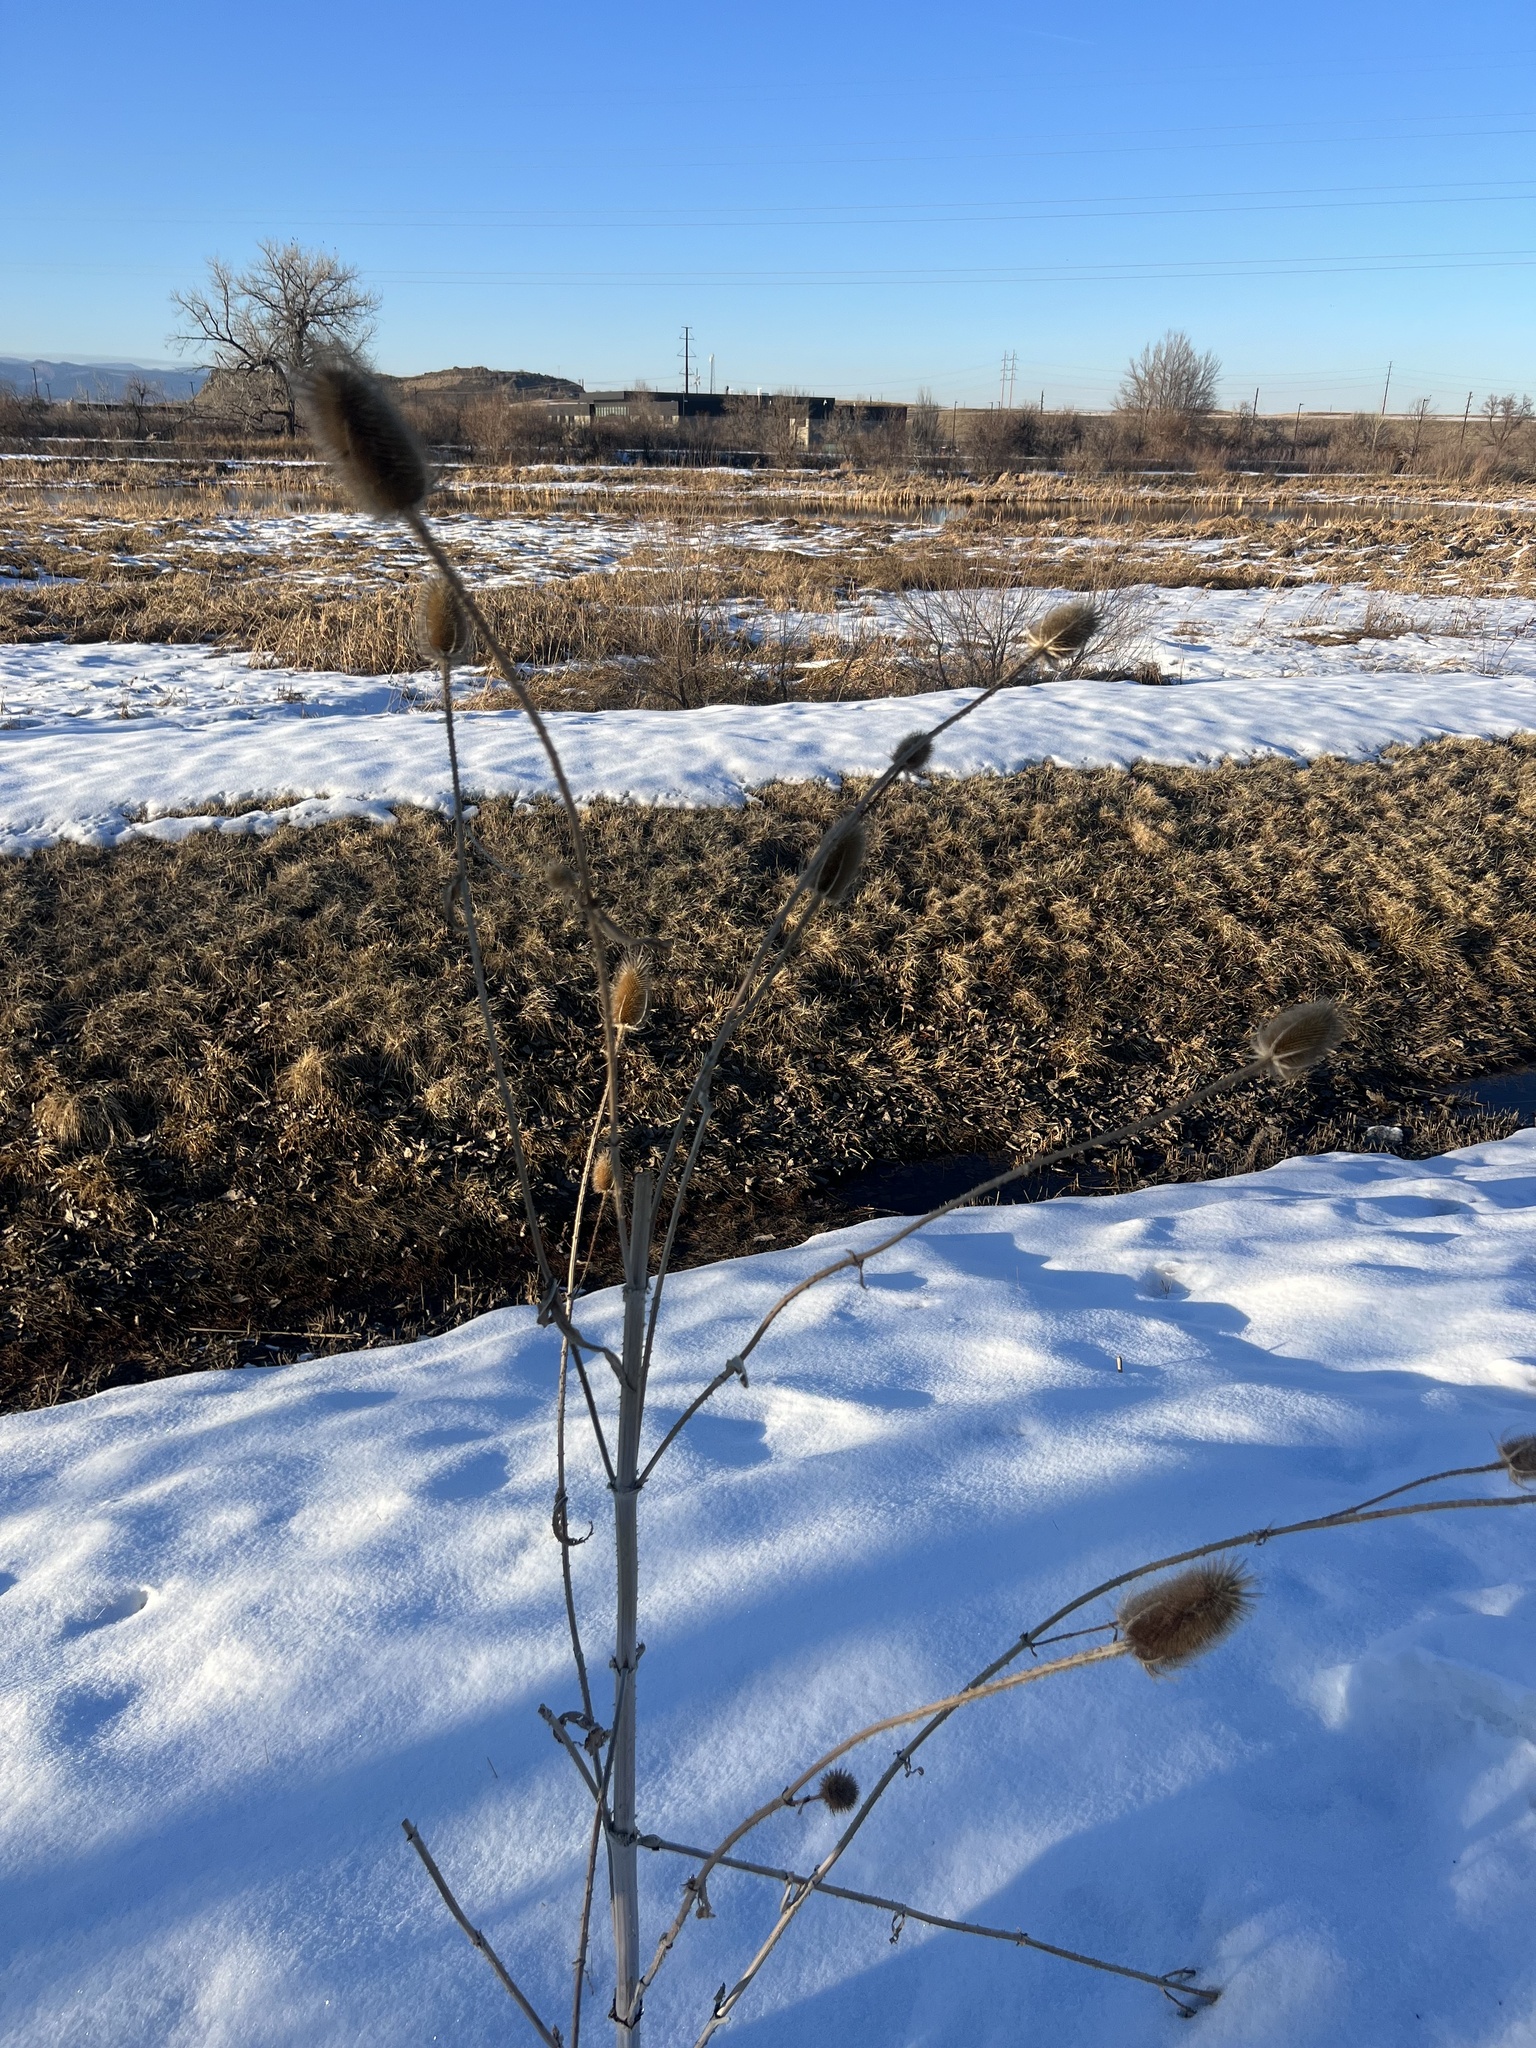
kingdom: Plantae
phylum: Tracheophyta
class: Magnoliopsida
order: Dipsacales
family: Caprifoliaceae
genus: Dipsacus
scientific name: Dipsacus fullonum
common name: Teasel
